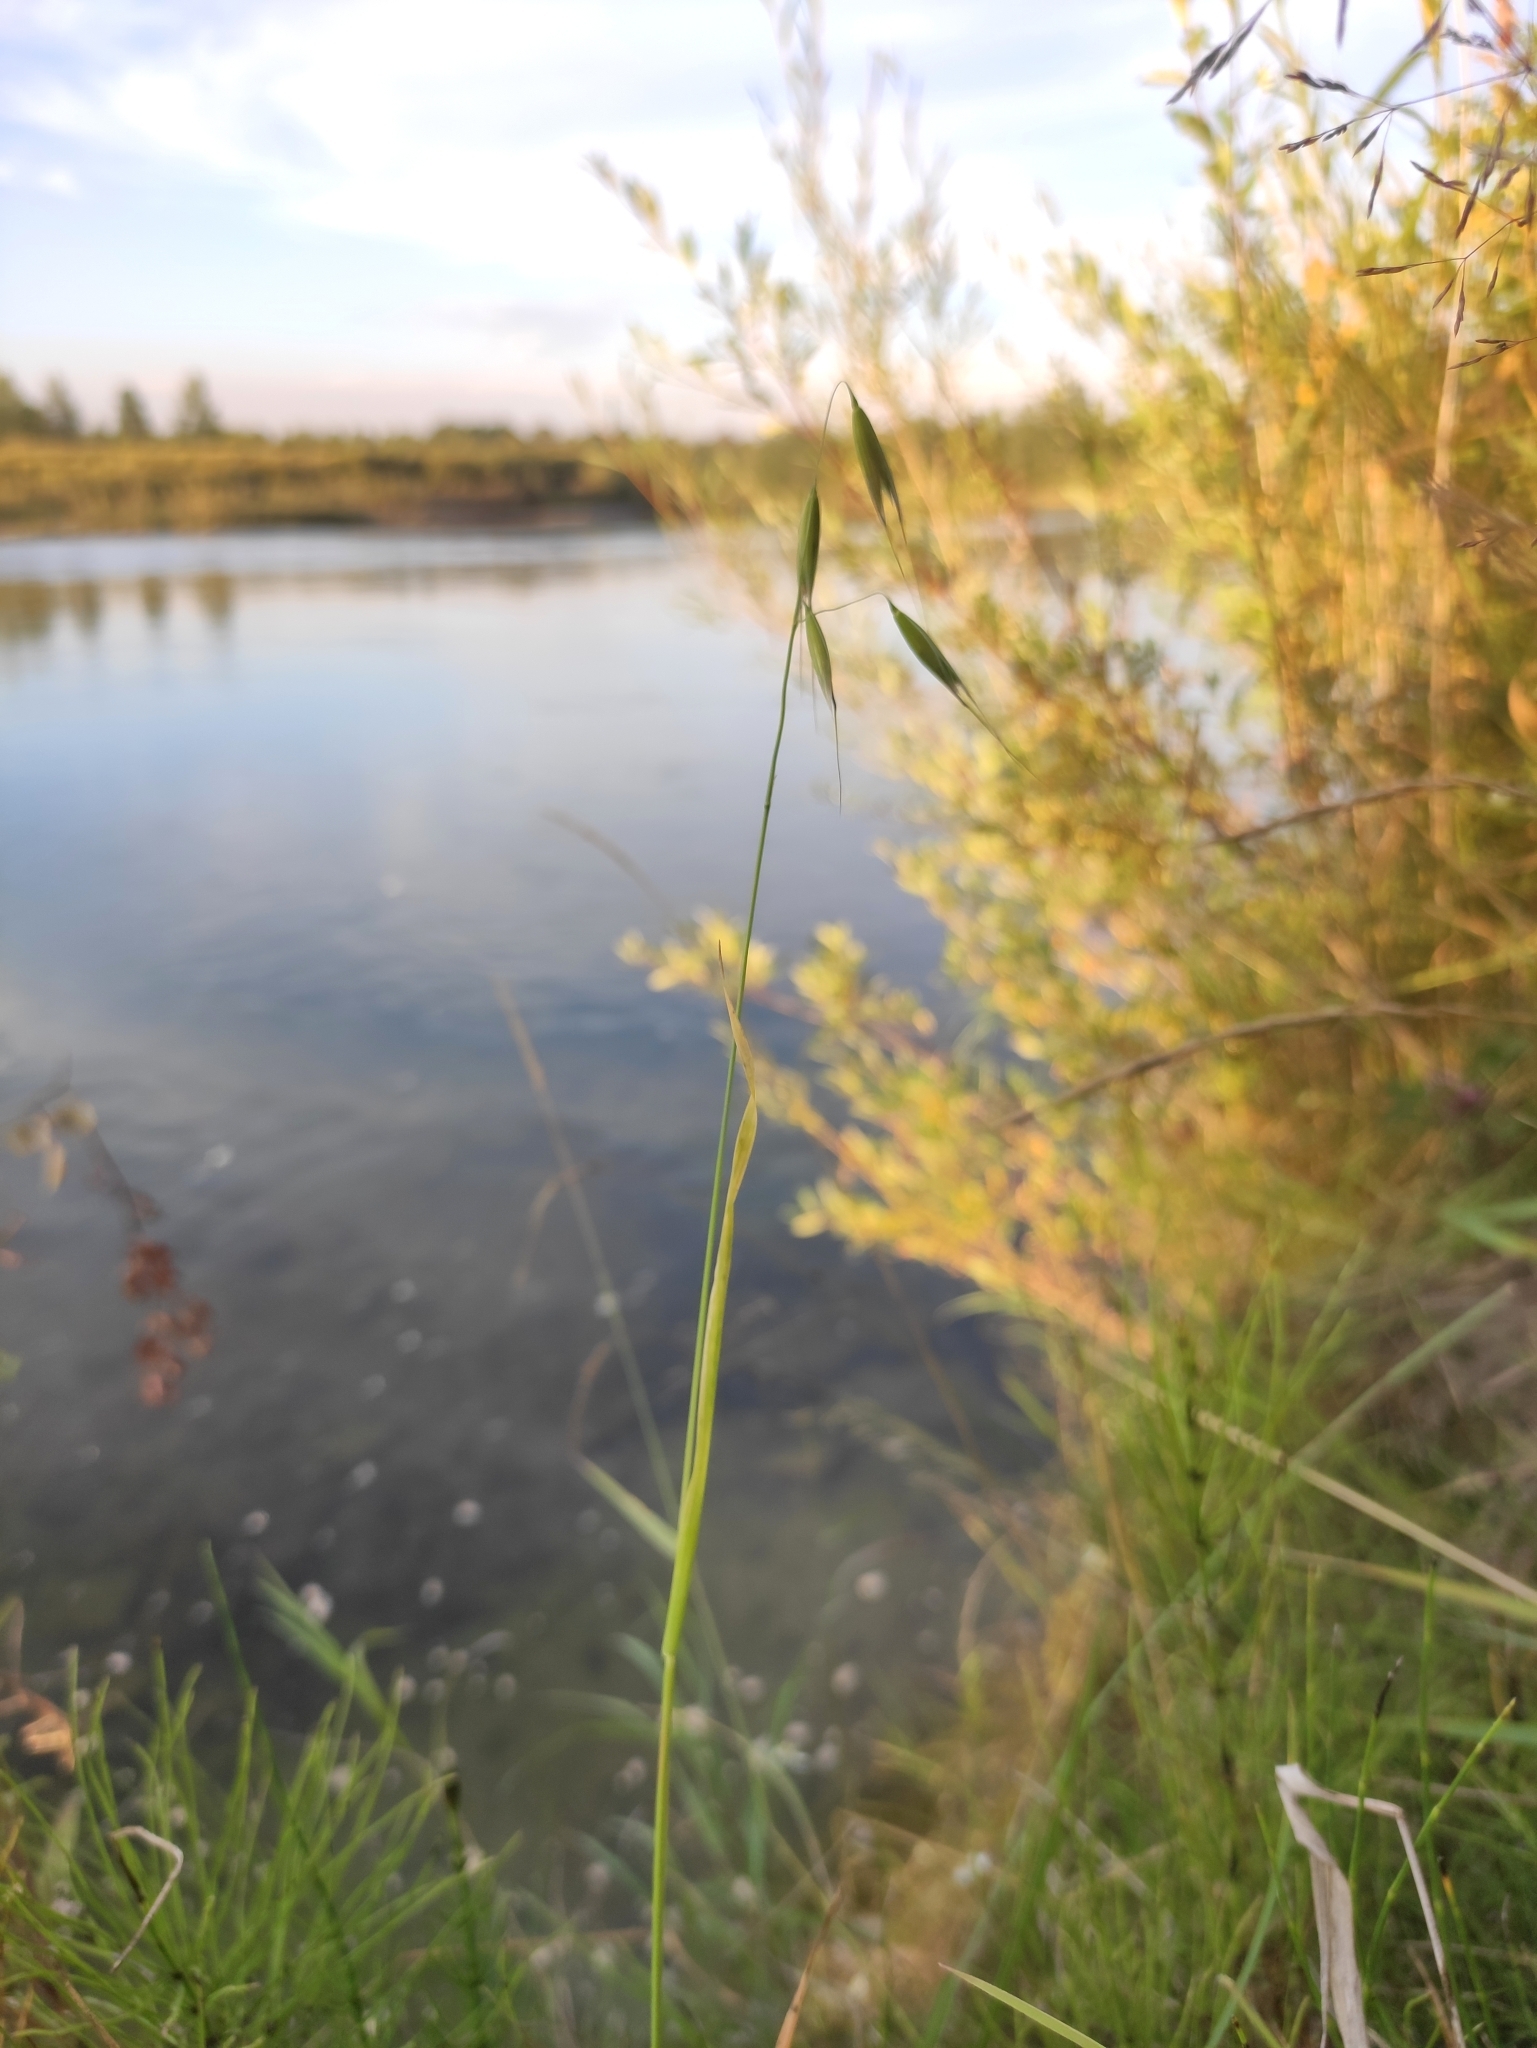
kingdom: Plantae
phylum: Tracheophyta
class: Liliopsida
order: Poales
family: Poaceae
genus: Avena
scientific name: Avena fatua
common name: Wild oat
